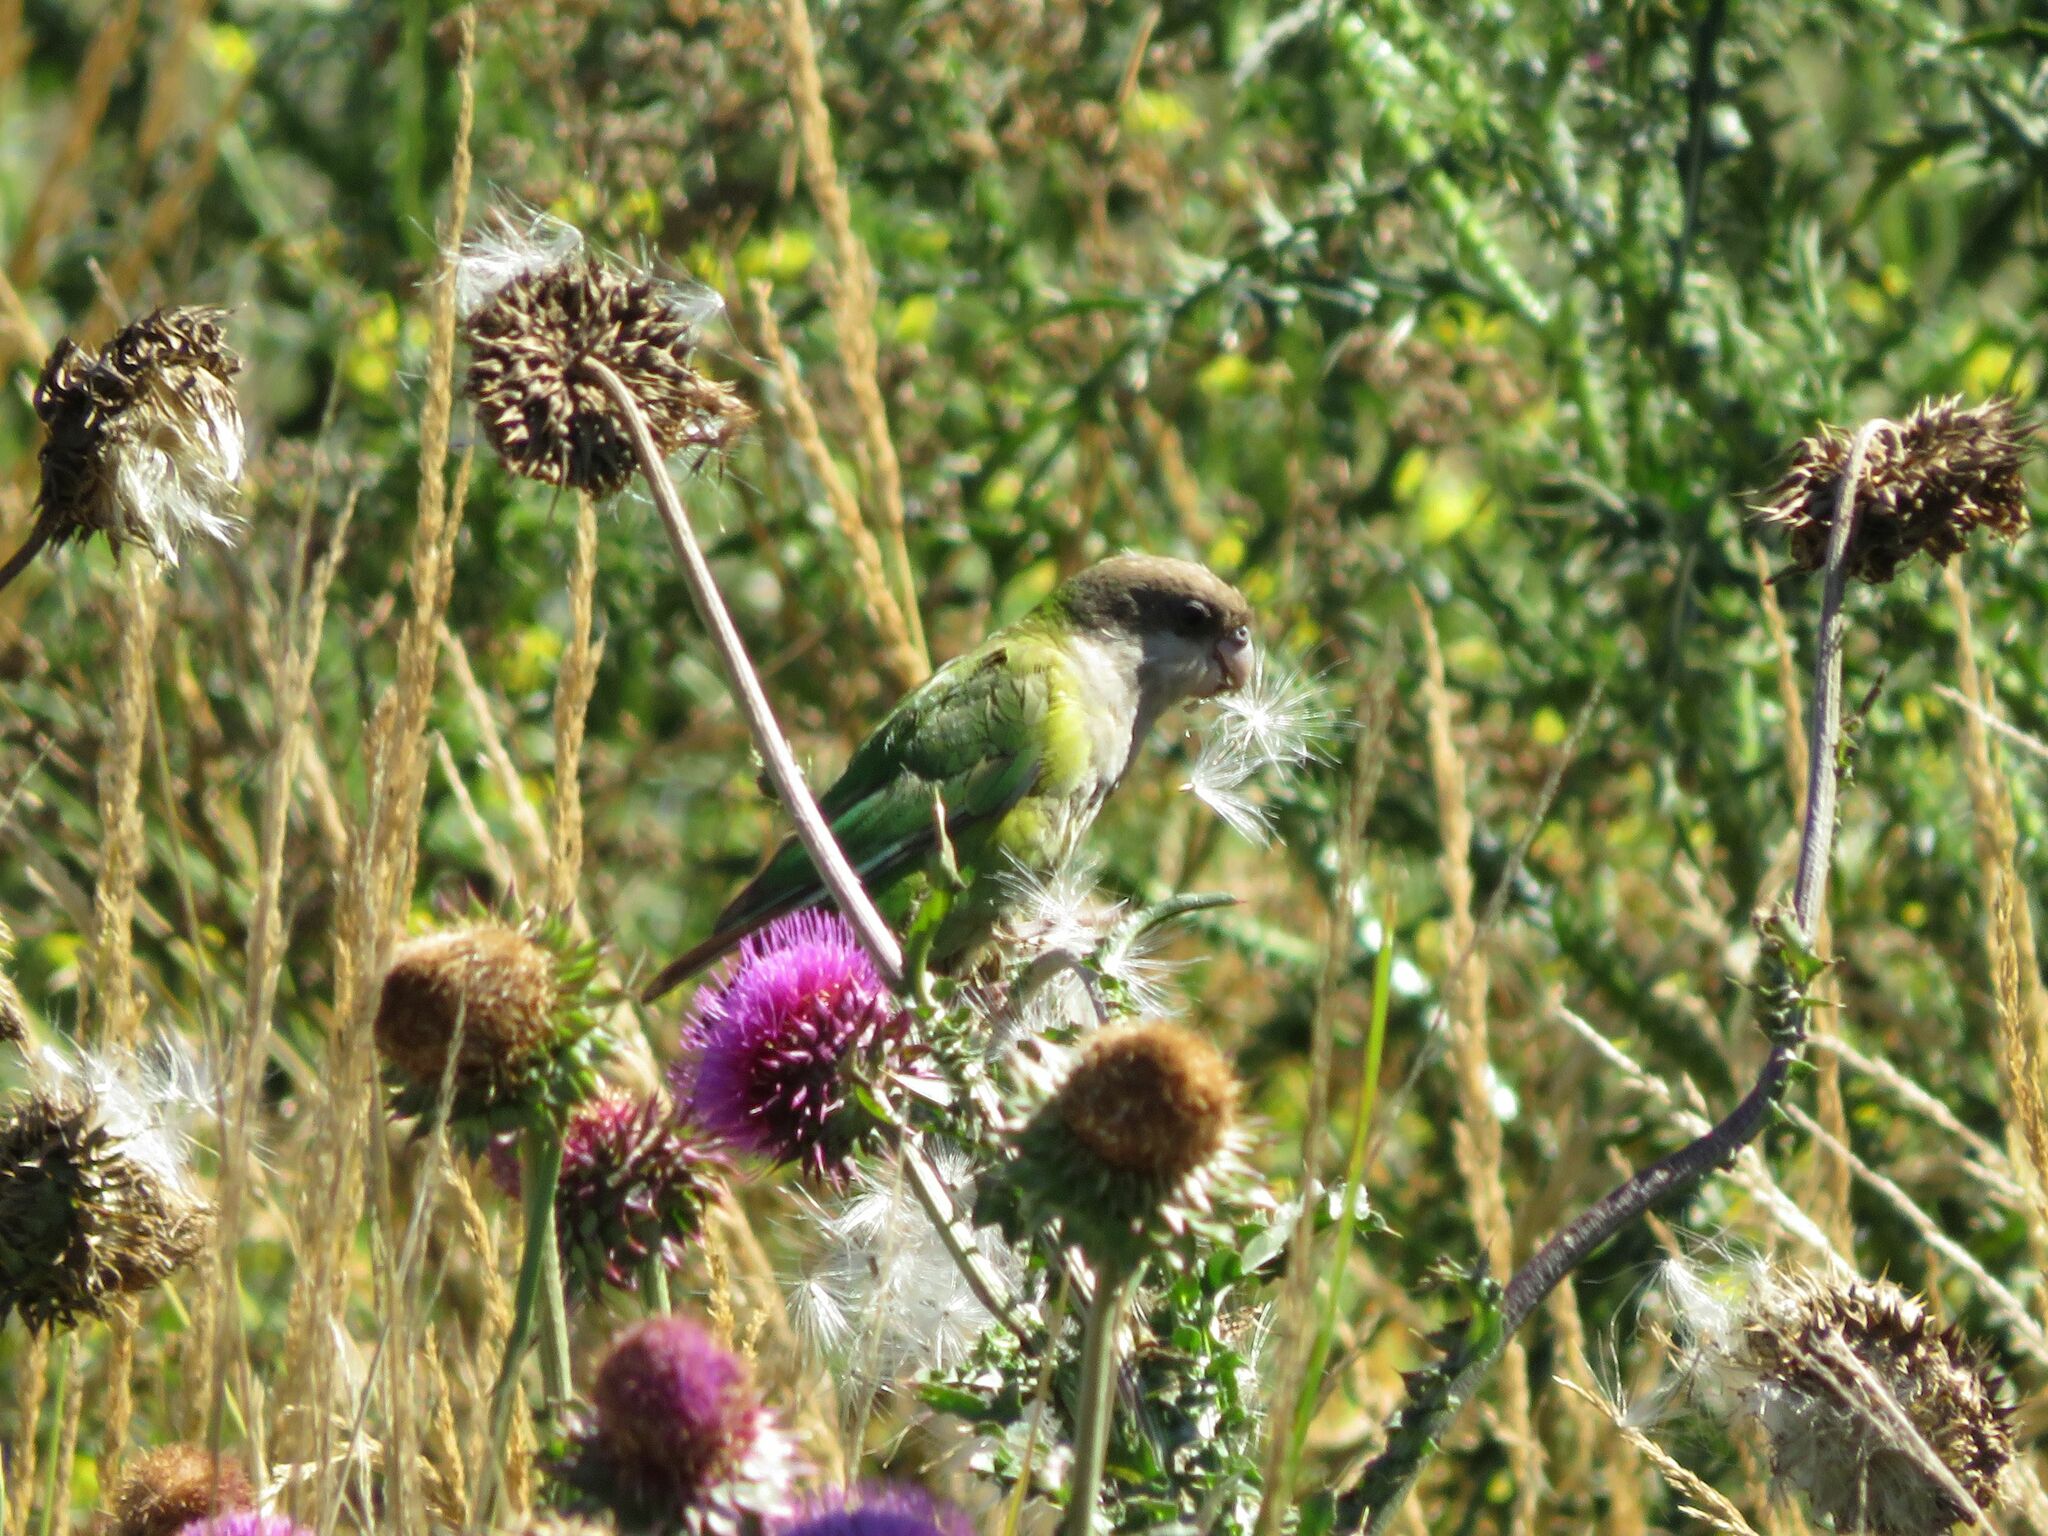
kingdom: Animalia
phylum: Chordata
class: Aves
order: Psittaciformes
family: Psittacidae
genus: Psilopsiagon
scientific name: Psilopsiagon aymara
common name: Grey-hooded parakeet
